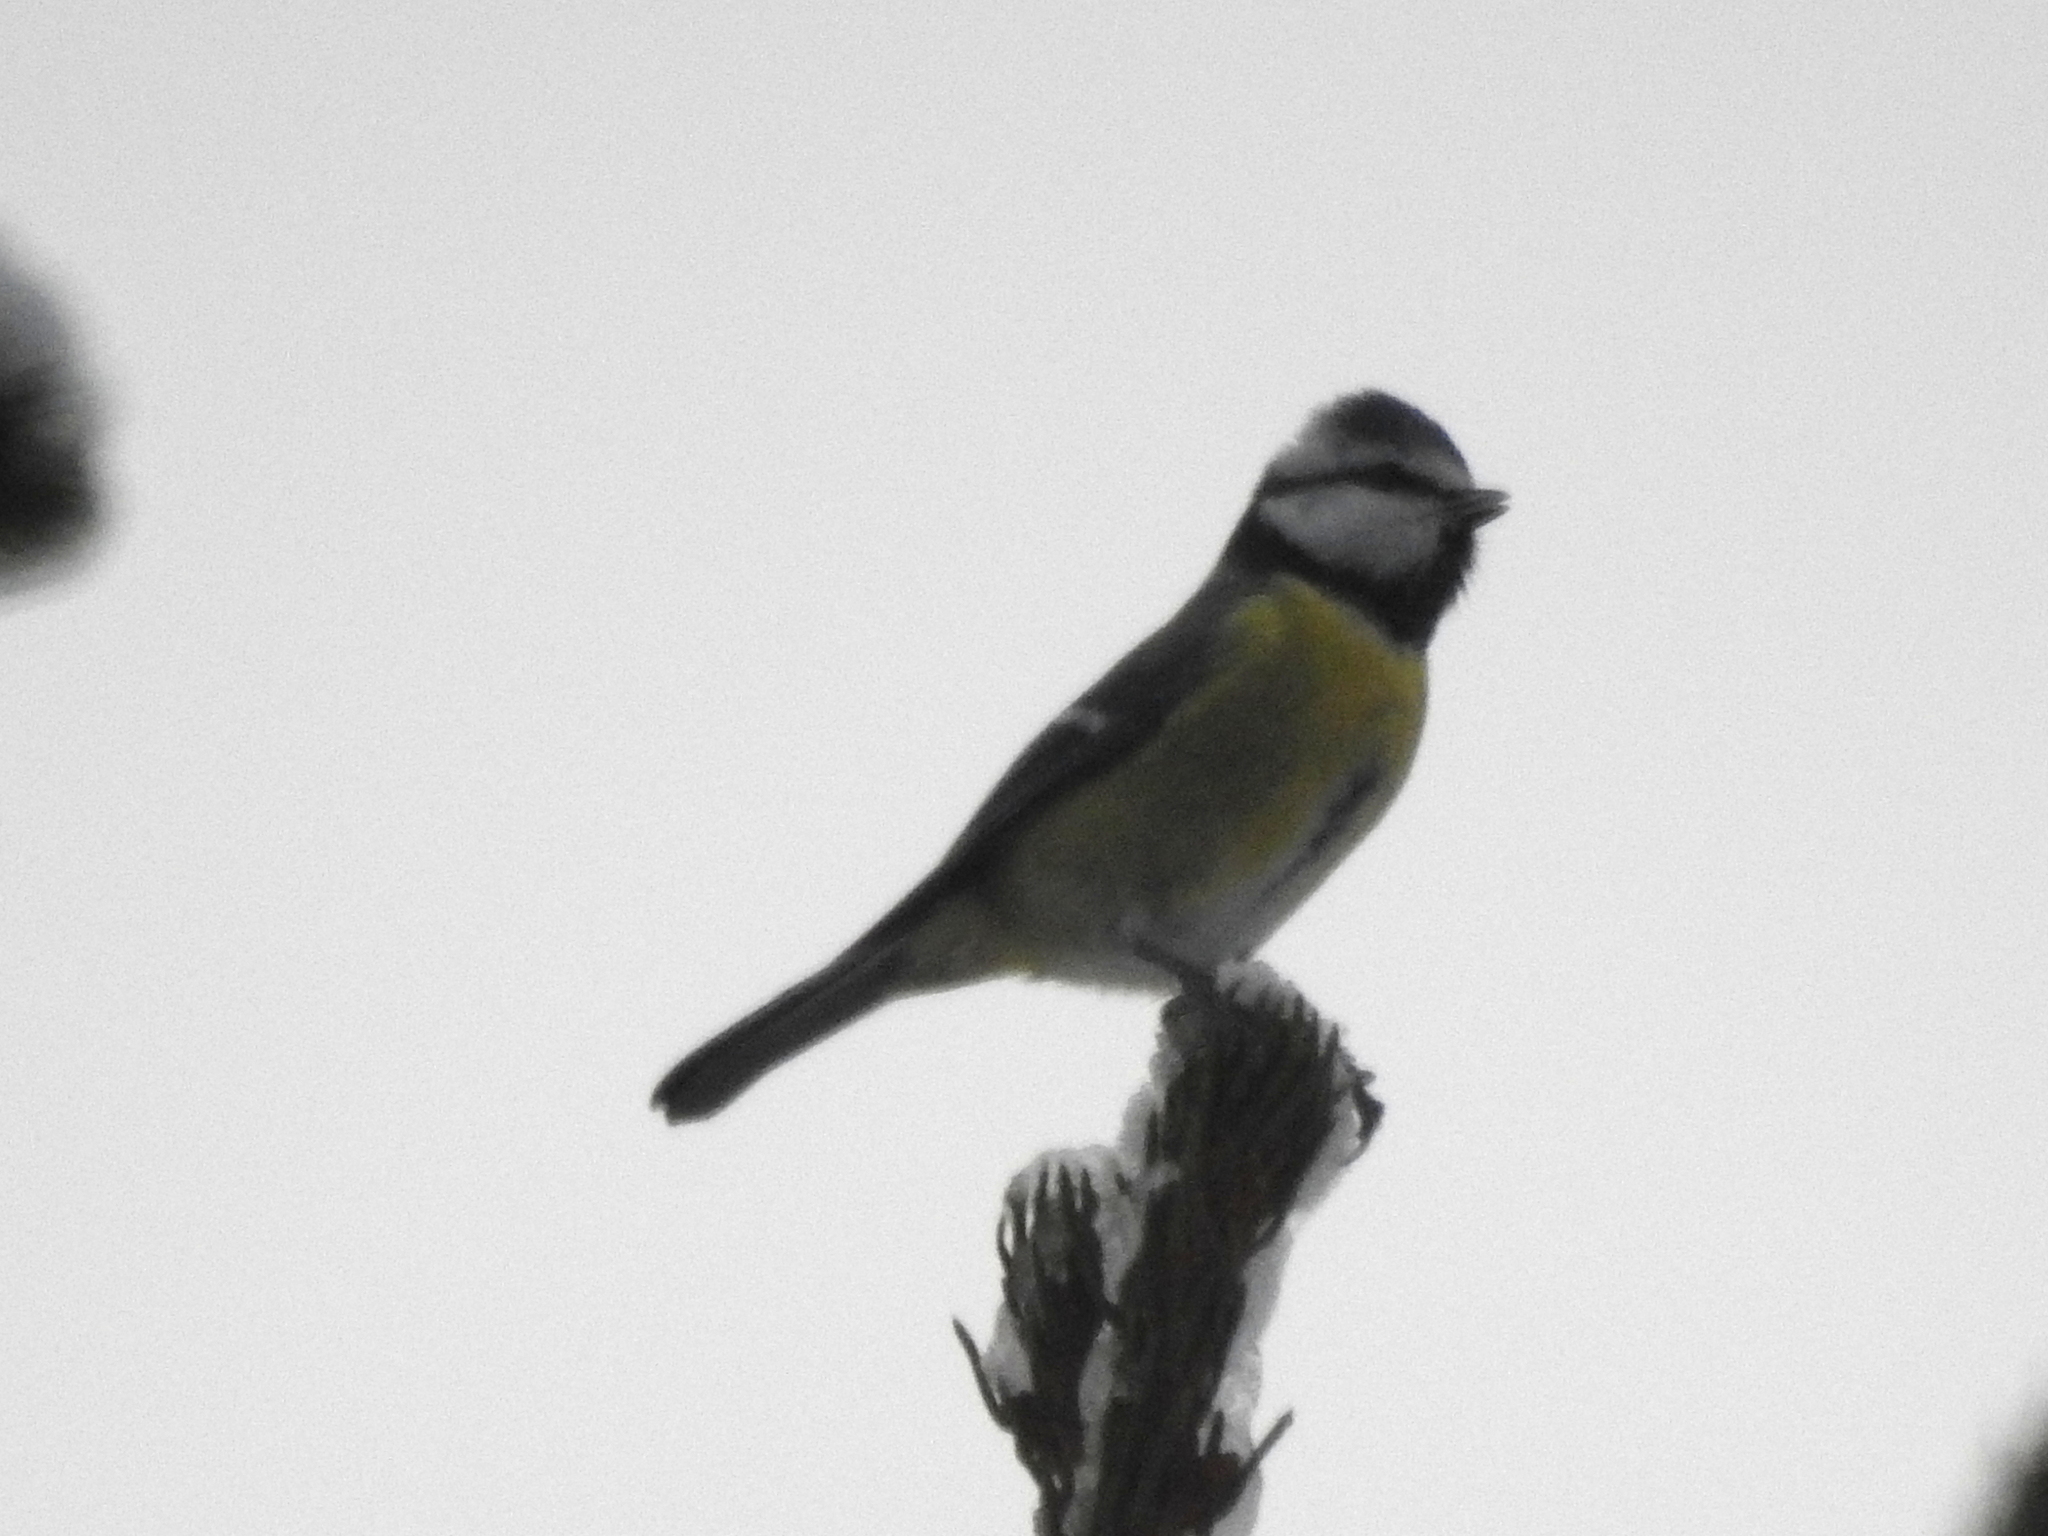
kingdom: Animalia
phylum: Chordata
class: Aves
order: Passeriformes
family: Paridae
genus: Cyanistes
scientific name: Cyanistes caeruleus
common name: Eurasian blue tit
